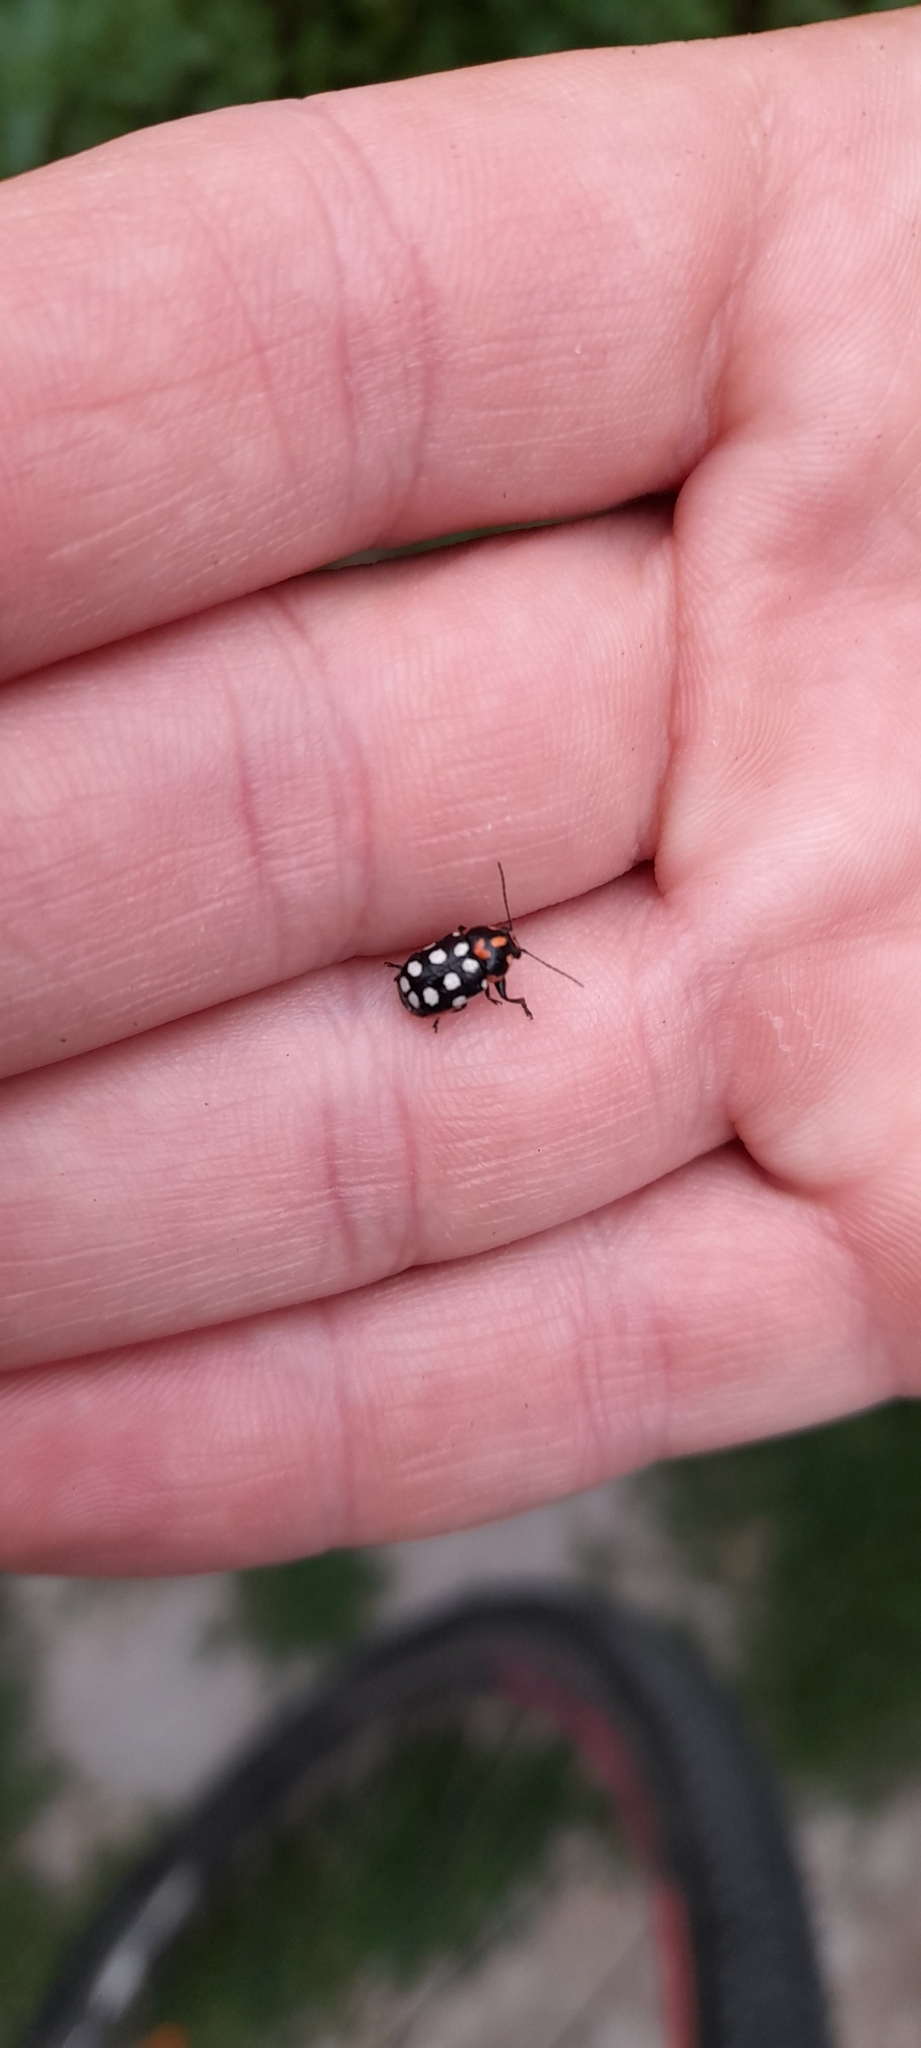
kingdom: Animalia
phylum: Arthropoda
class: Insecta
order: Coleoptera
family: Chrysomelidae
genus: Metallactus
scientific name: Metallactus octoguttatus
